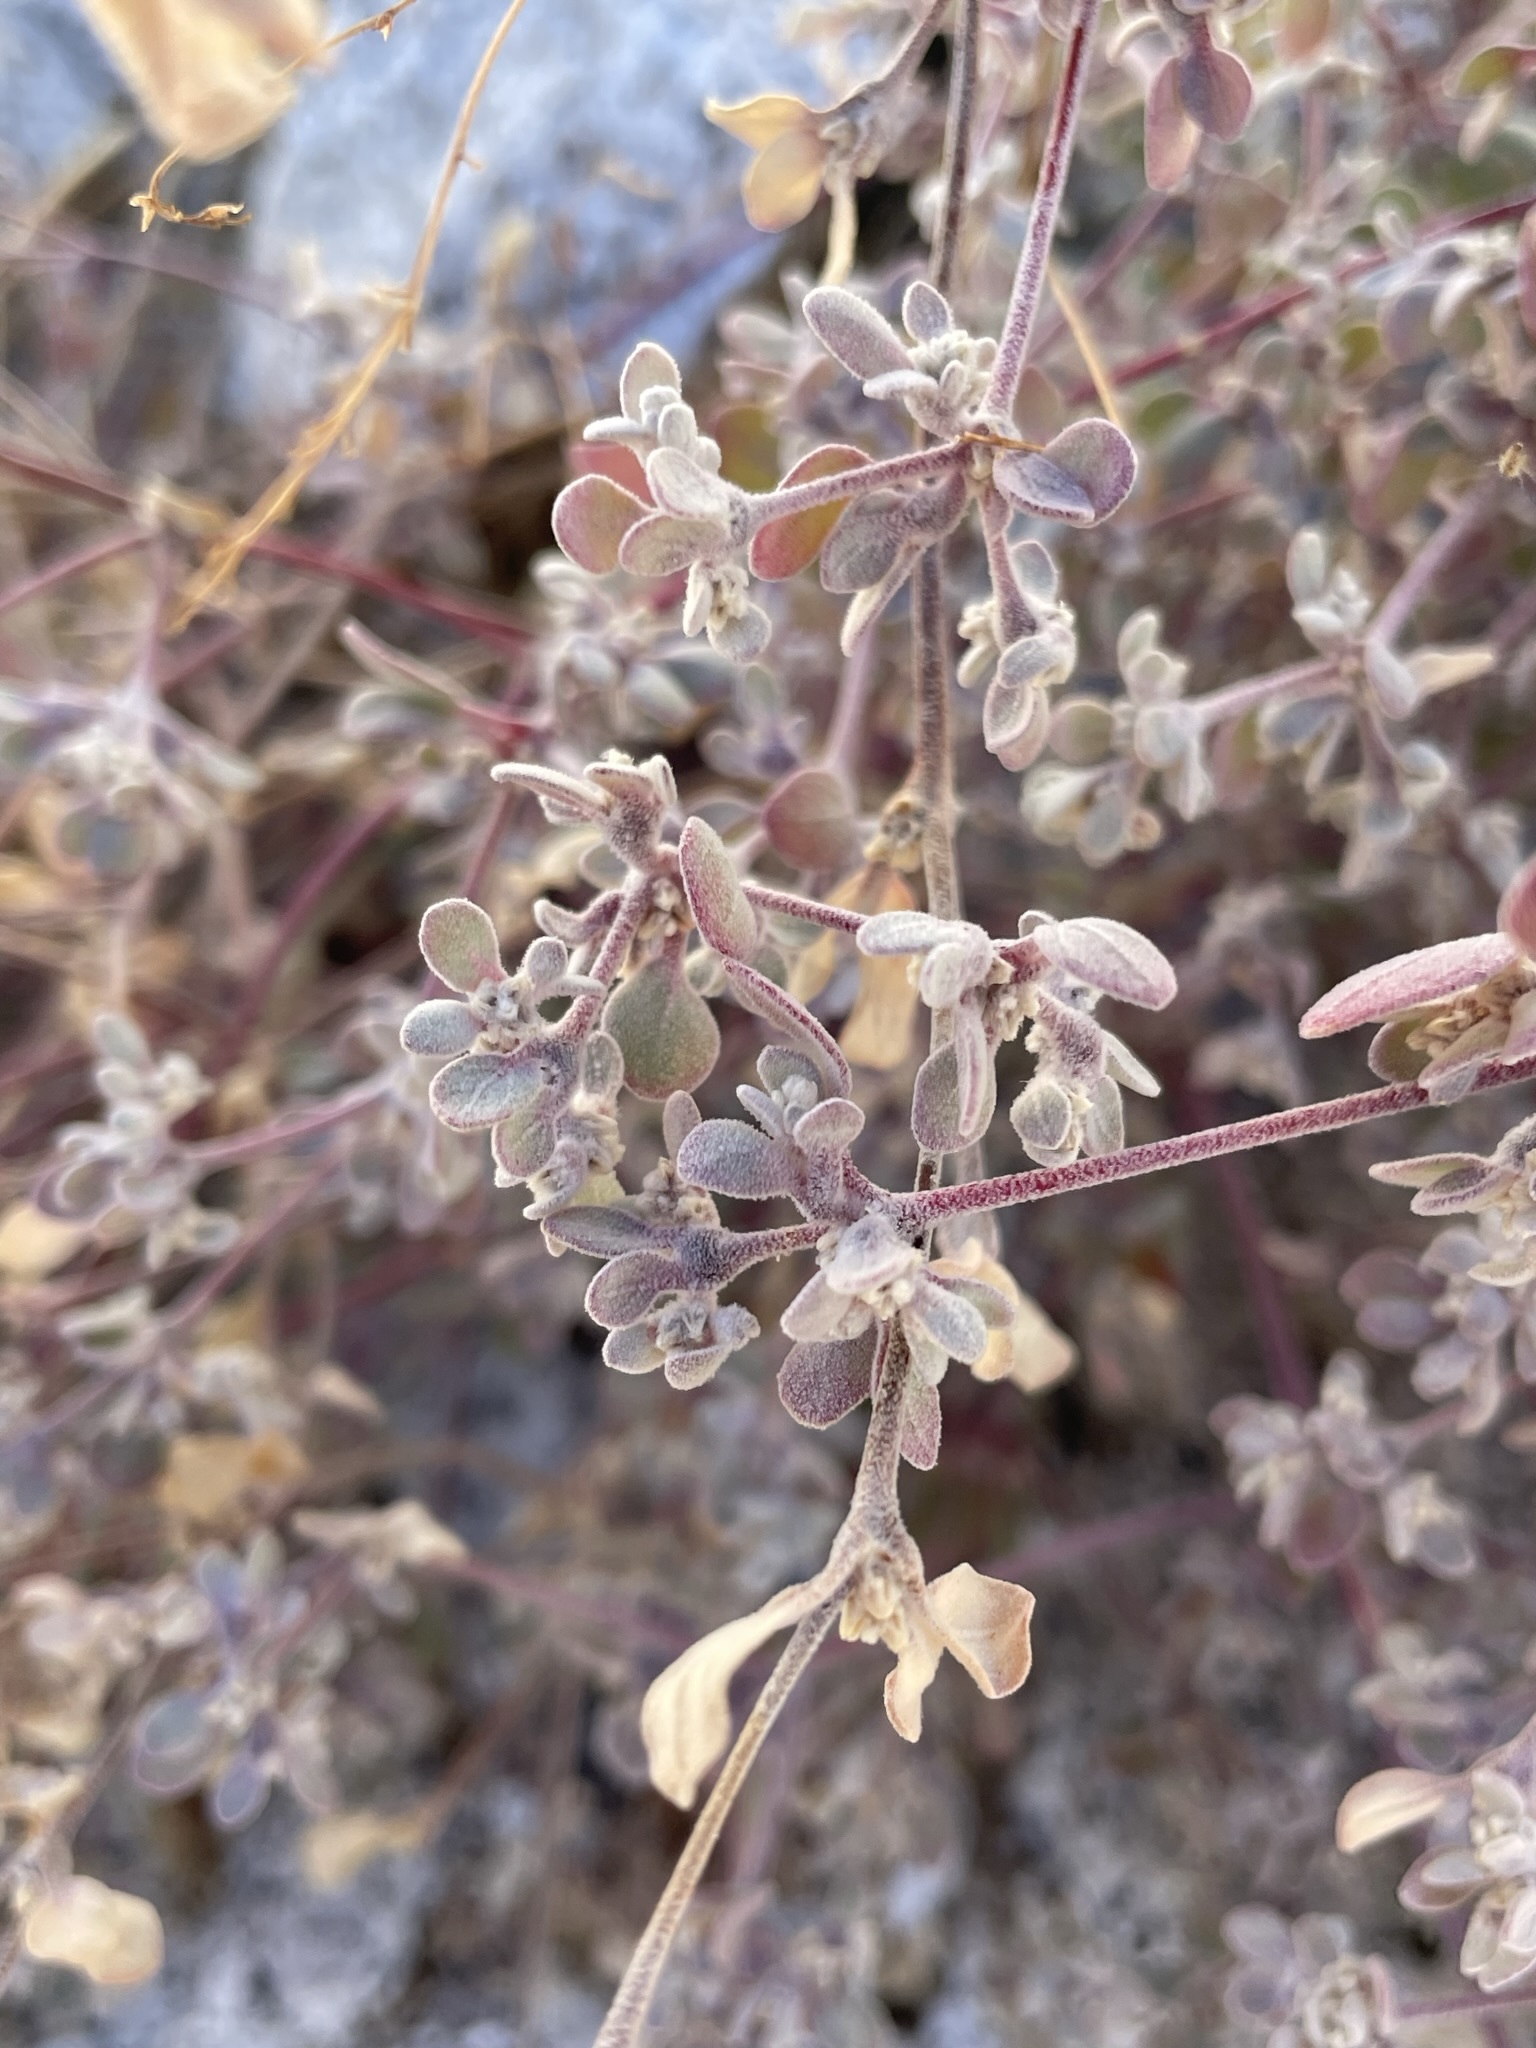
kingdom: Plantae
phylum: Tracheophyta
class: Magnoliopsida
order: Caryophyllales
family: Amaranthaceae
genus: Tidestromia
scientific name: Tidestromia suffruticosa
